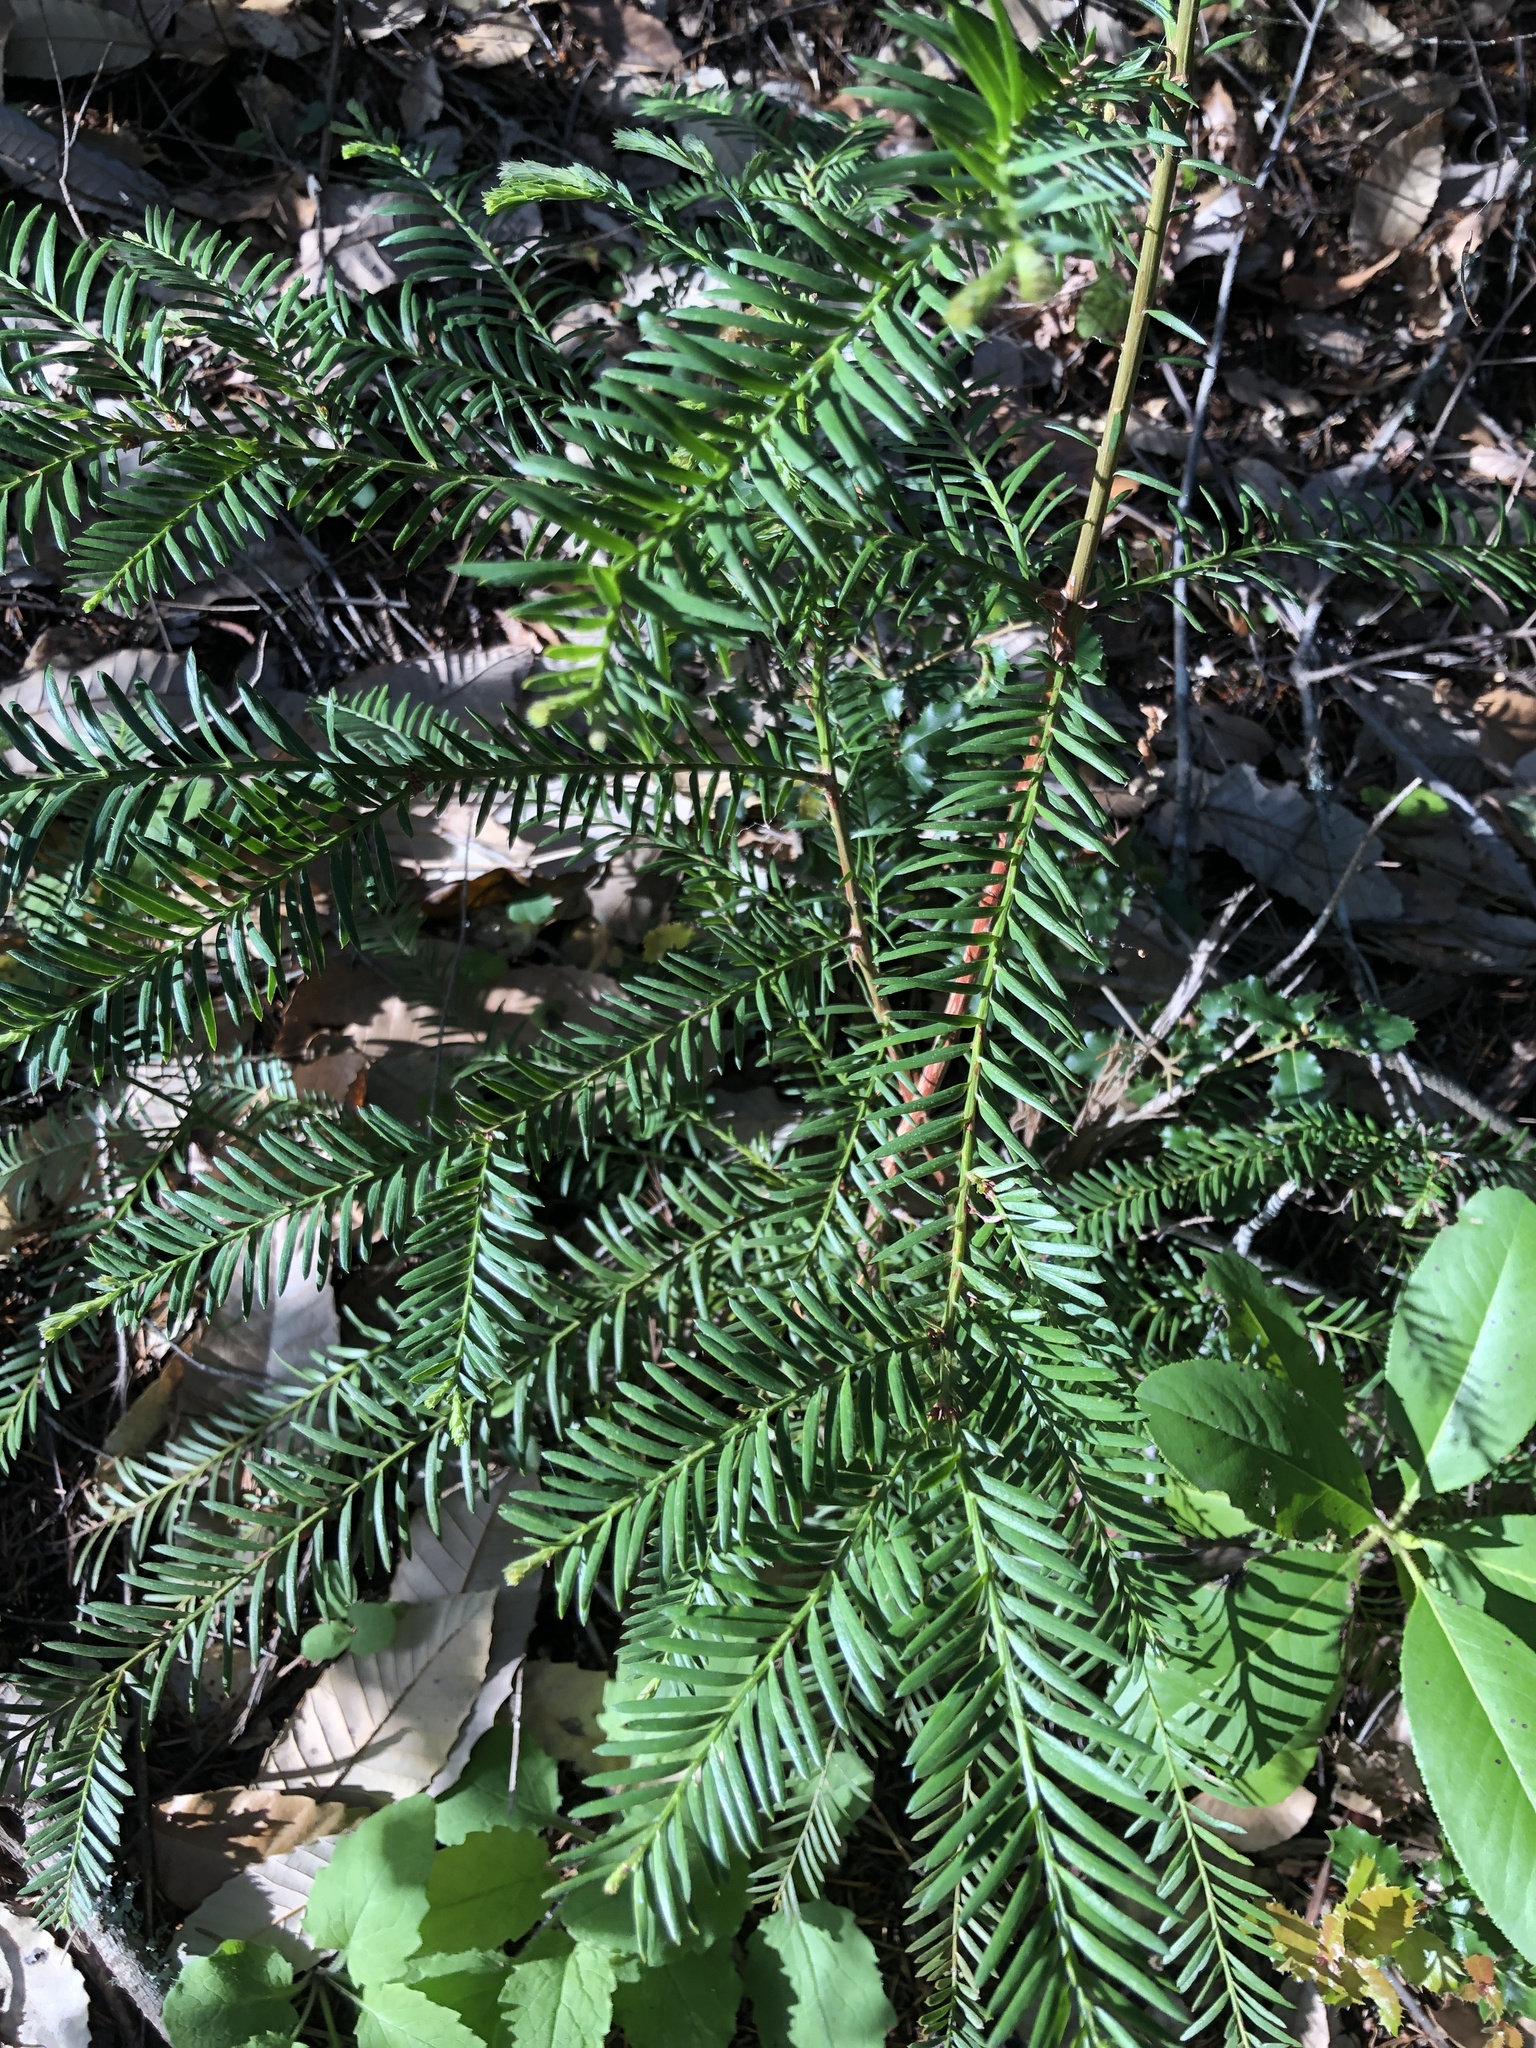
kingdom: Plantae
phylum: Tracheophyta
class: Pinopsida
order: Pinales
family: Cupressaceae
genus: Sequoia
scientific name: Sequoia sempervirens
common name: Coast redwood
